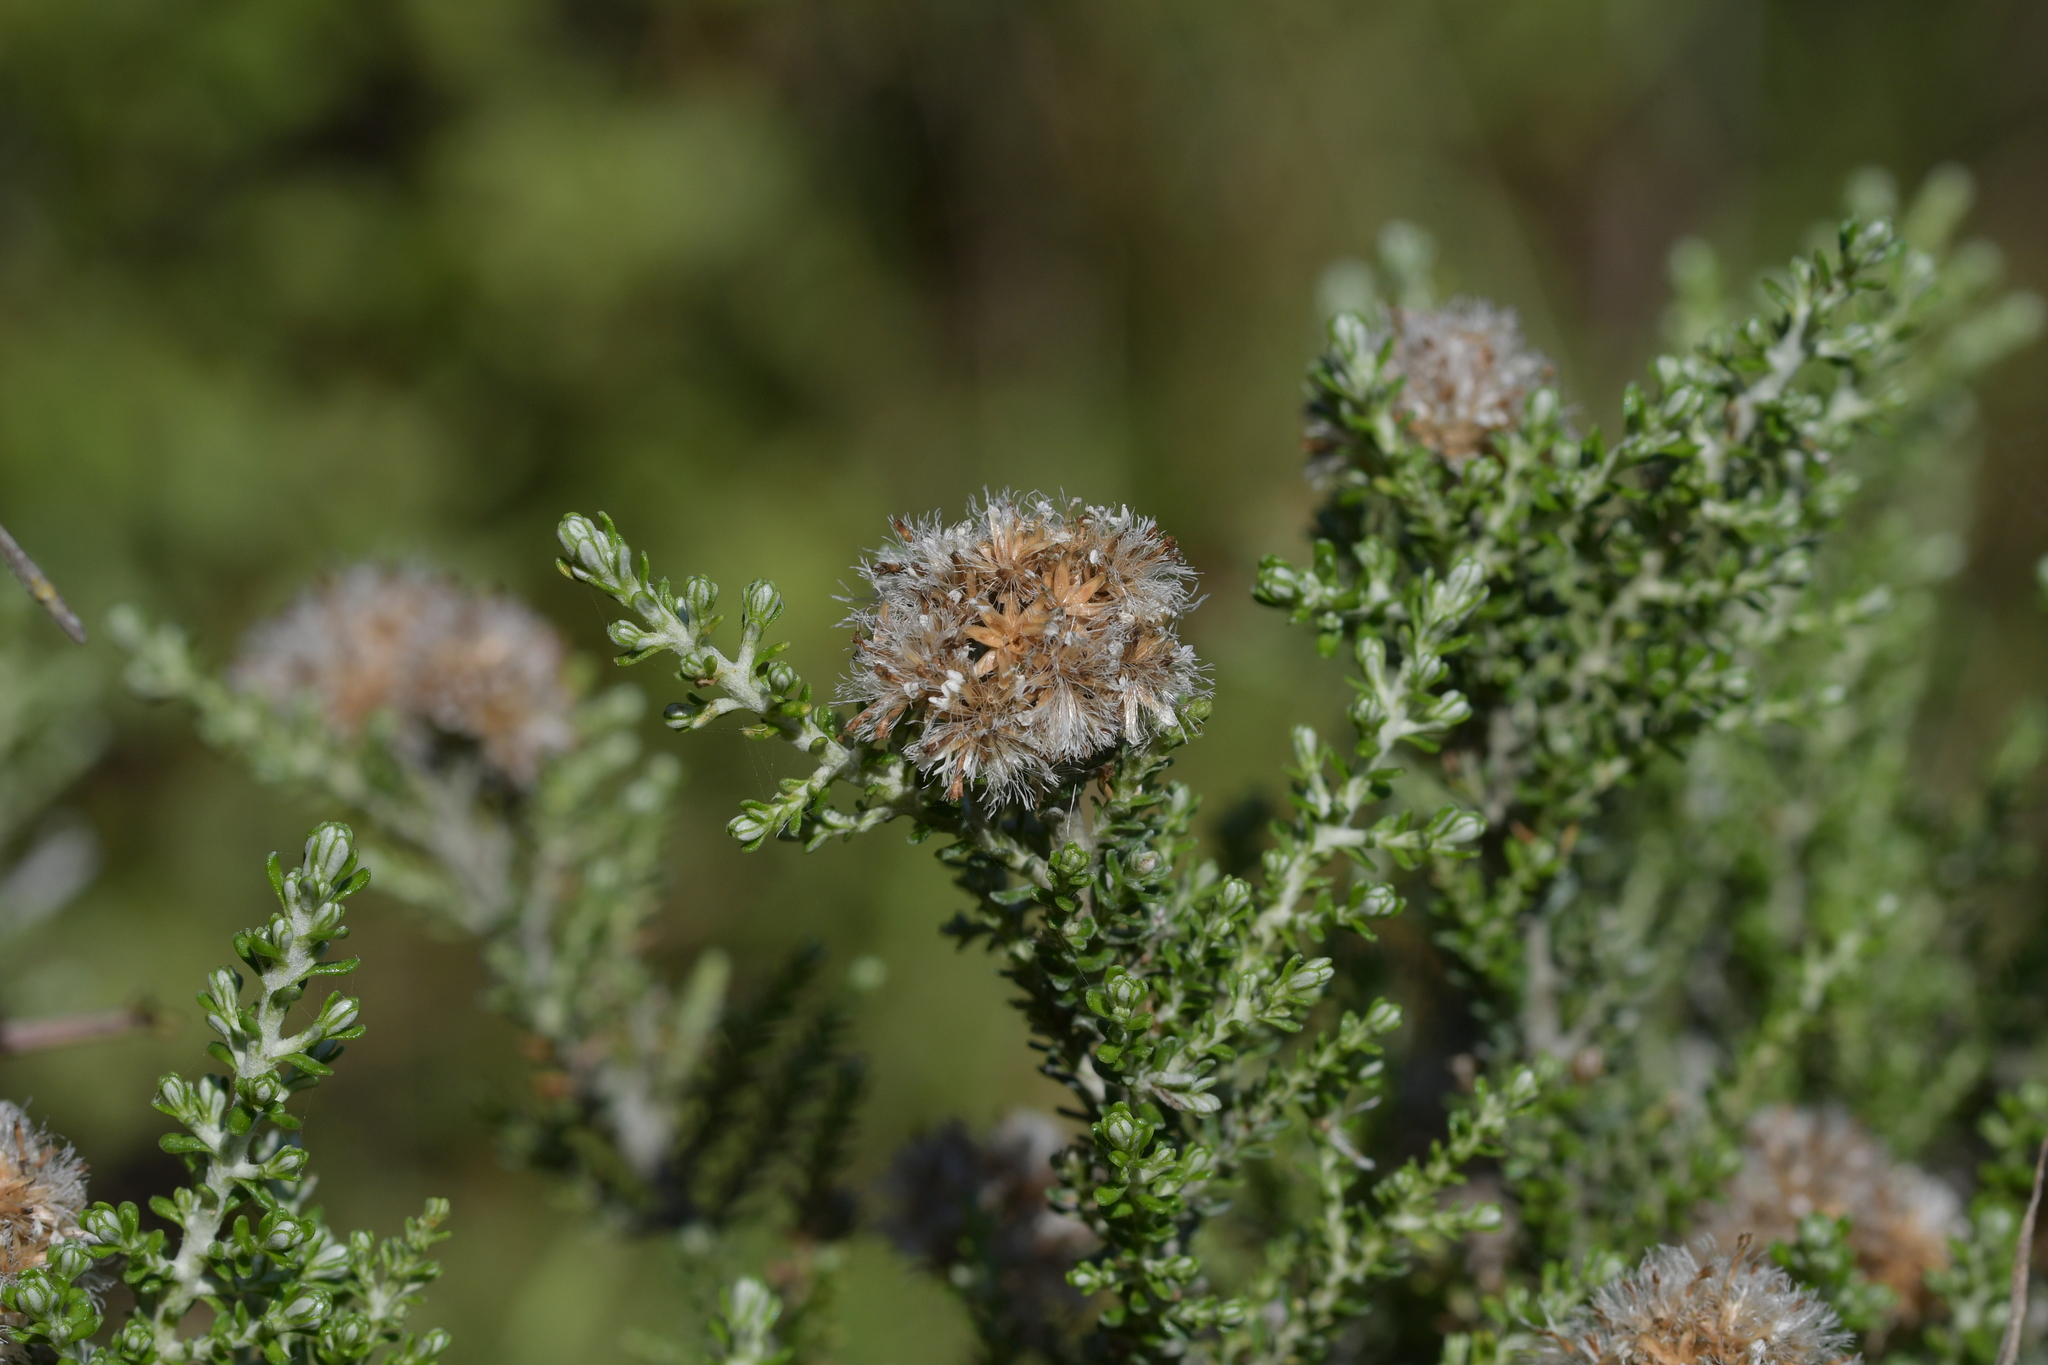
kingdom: Plantae
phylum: Tracheophyta
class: Magnoliopsida
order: Asterales
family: Asteraceae
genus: Ozothamnus
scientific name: Ozothamnus leptophyllus
